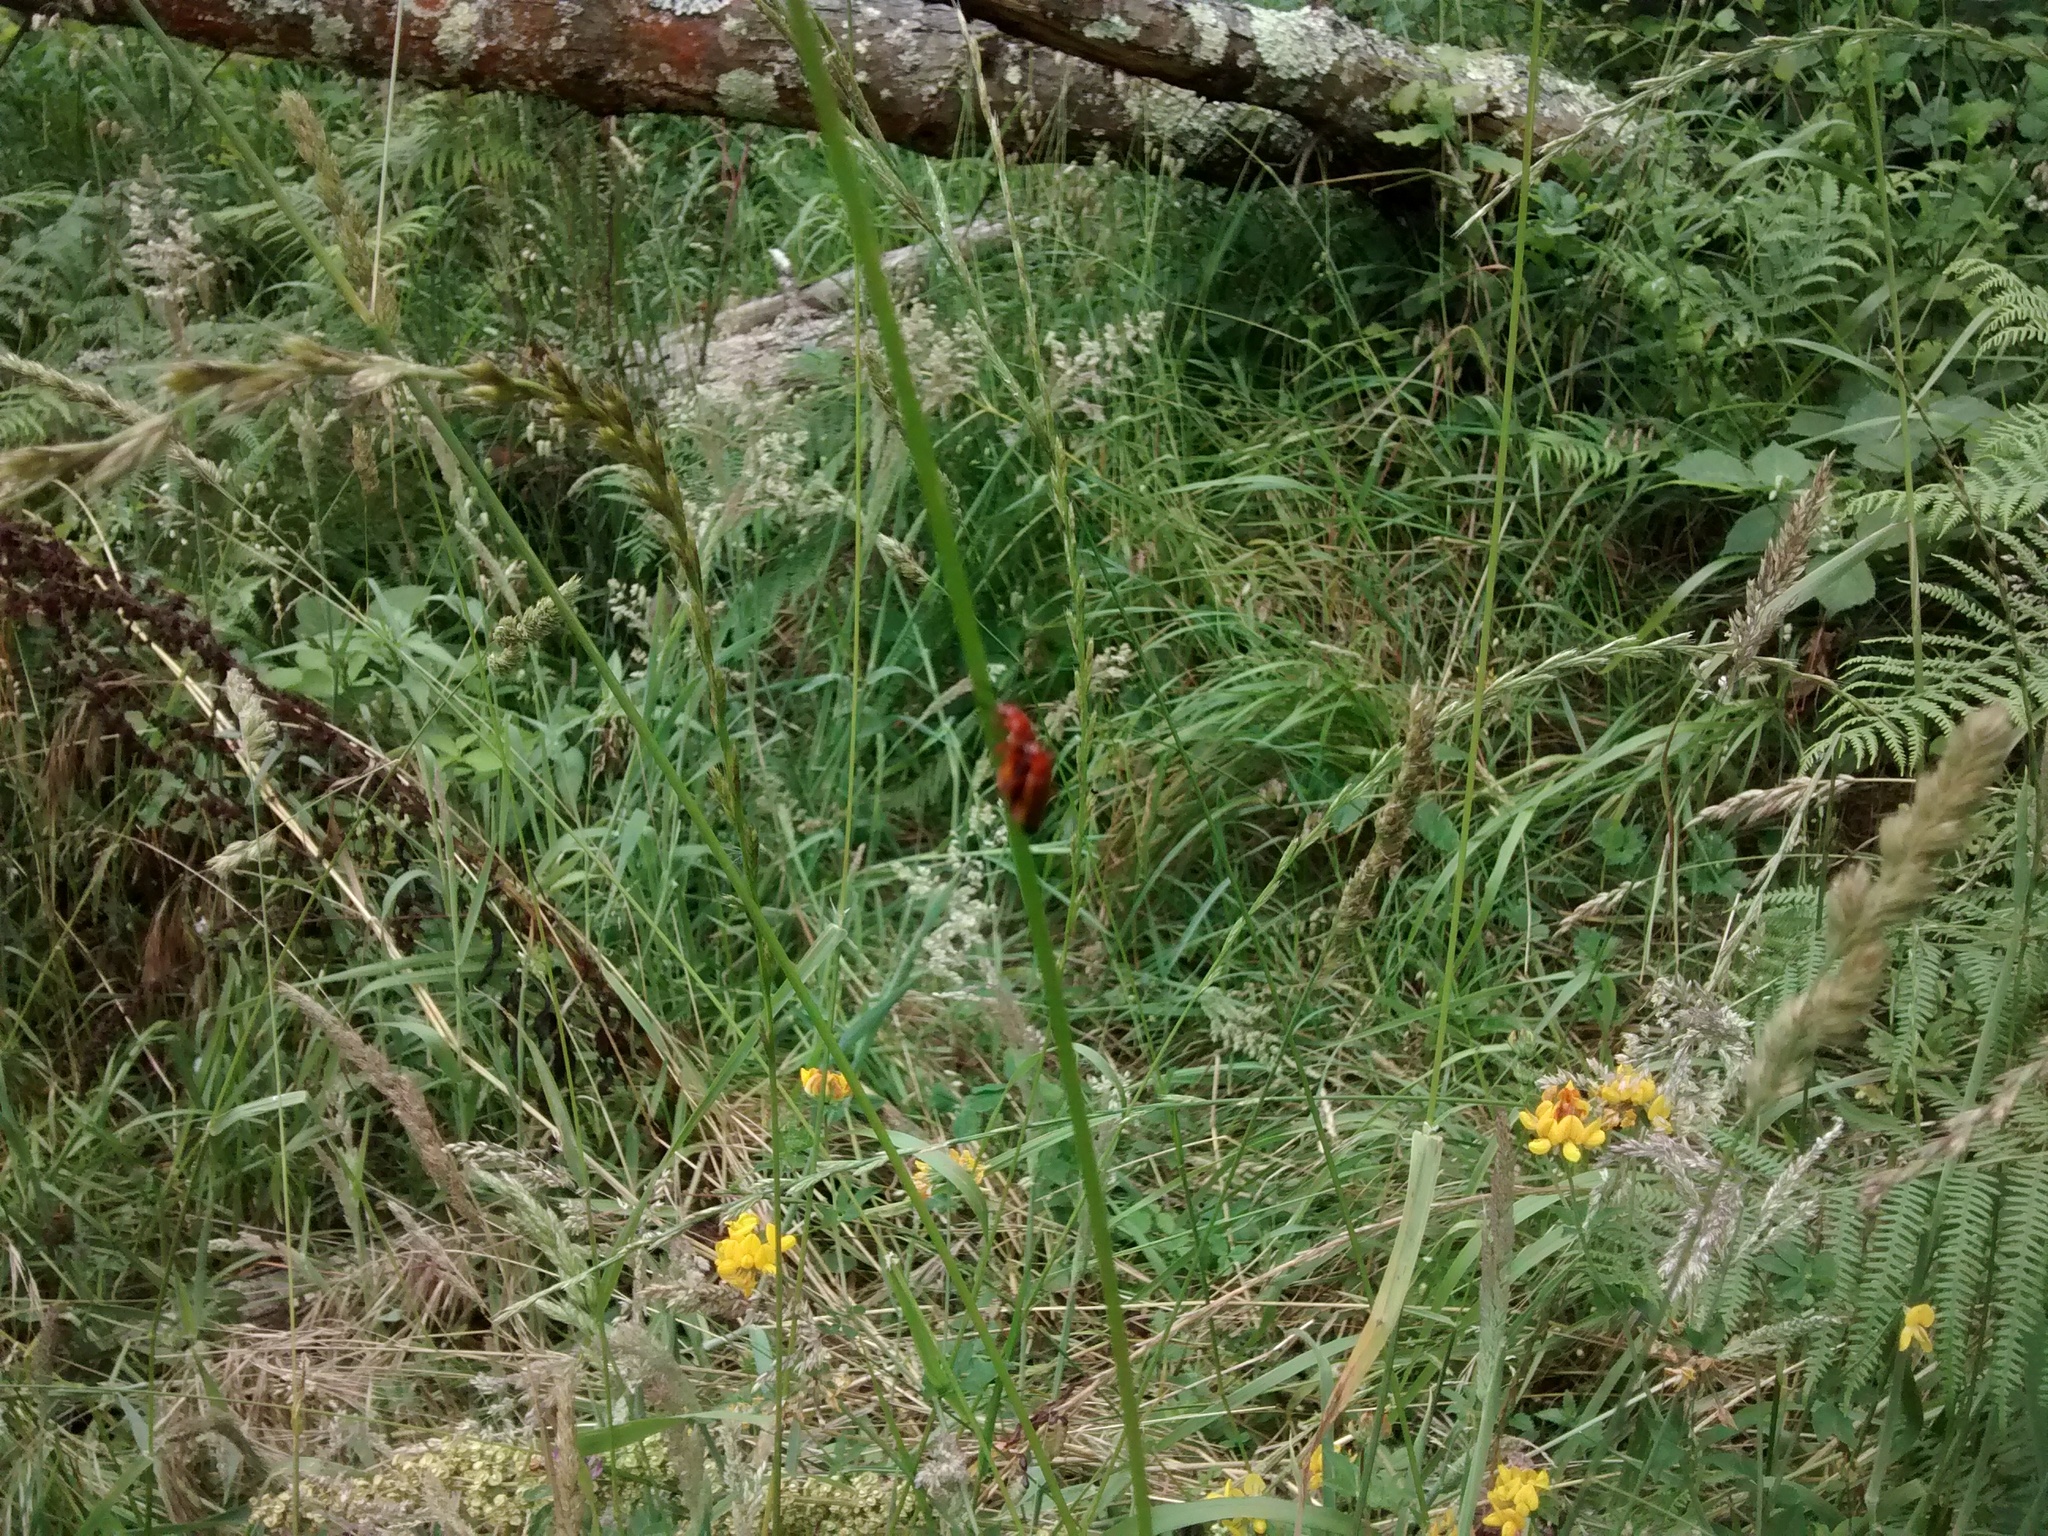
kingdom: Animalia
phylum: Arthropoda
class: Insecta
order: Coleoptera
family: Cantharidae
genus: Rhagonycha
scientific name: Rhagonycha fulva
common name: Common red soldier beetle
